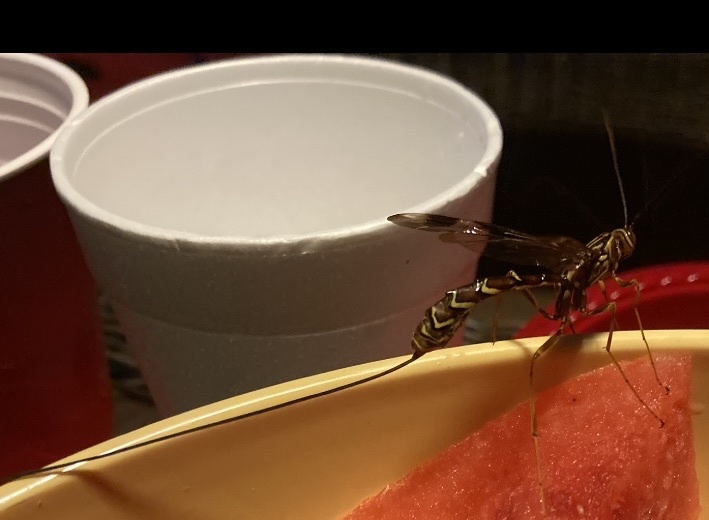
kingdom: Animalia
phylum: Arthropoda
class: Insecta
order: Hymenoptera
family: Ichneumonidae
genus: Megarhyssa
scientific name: Megarhyssa macrura
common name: Long-tailed giant ichneumonid wasp
